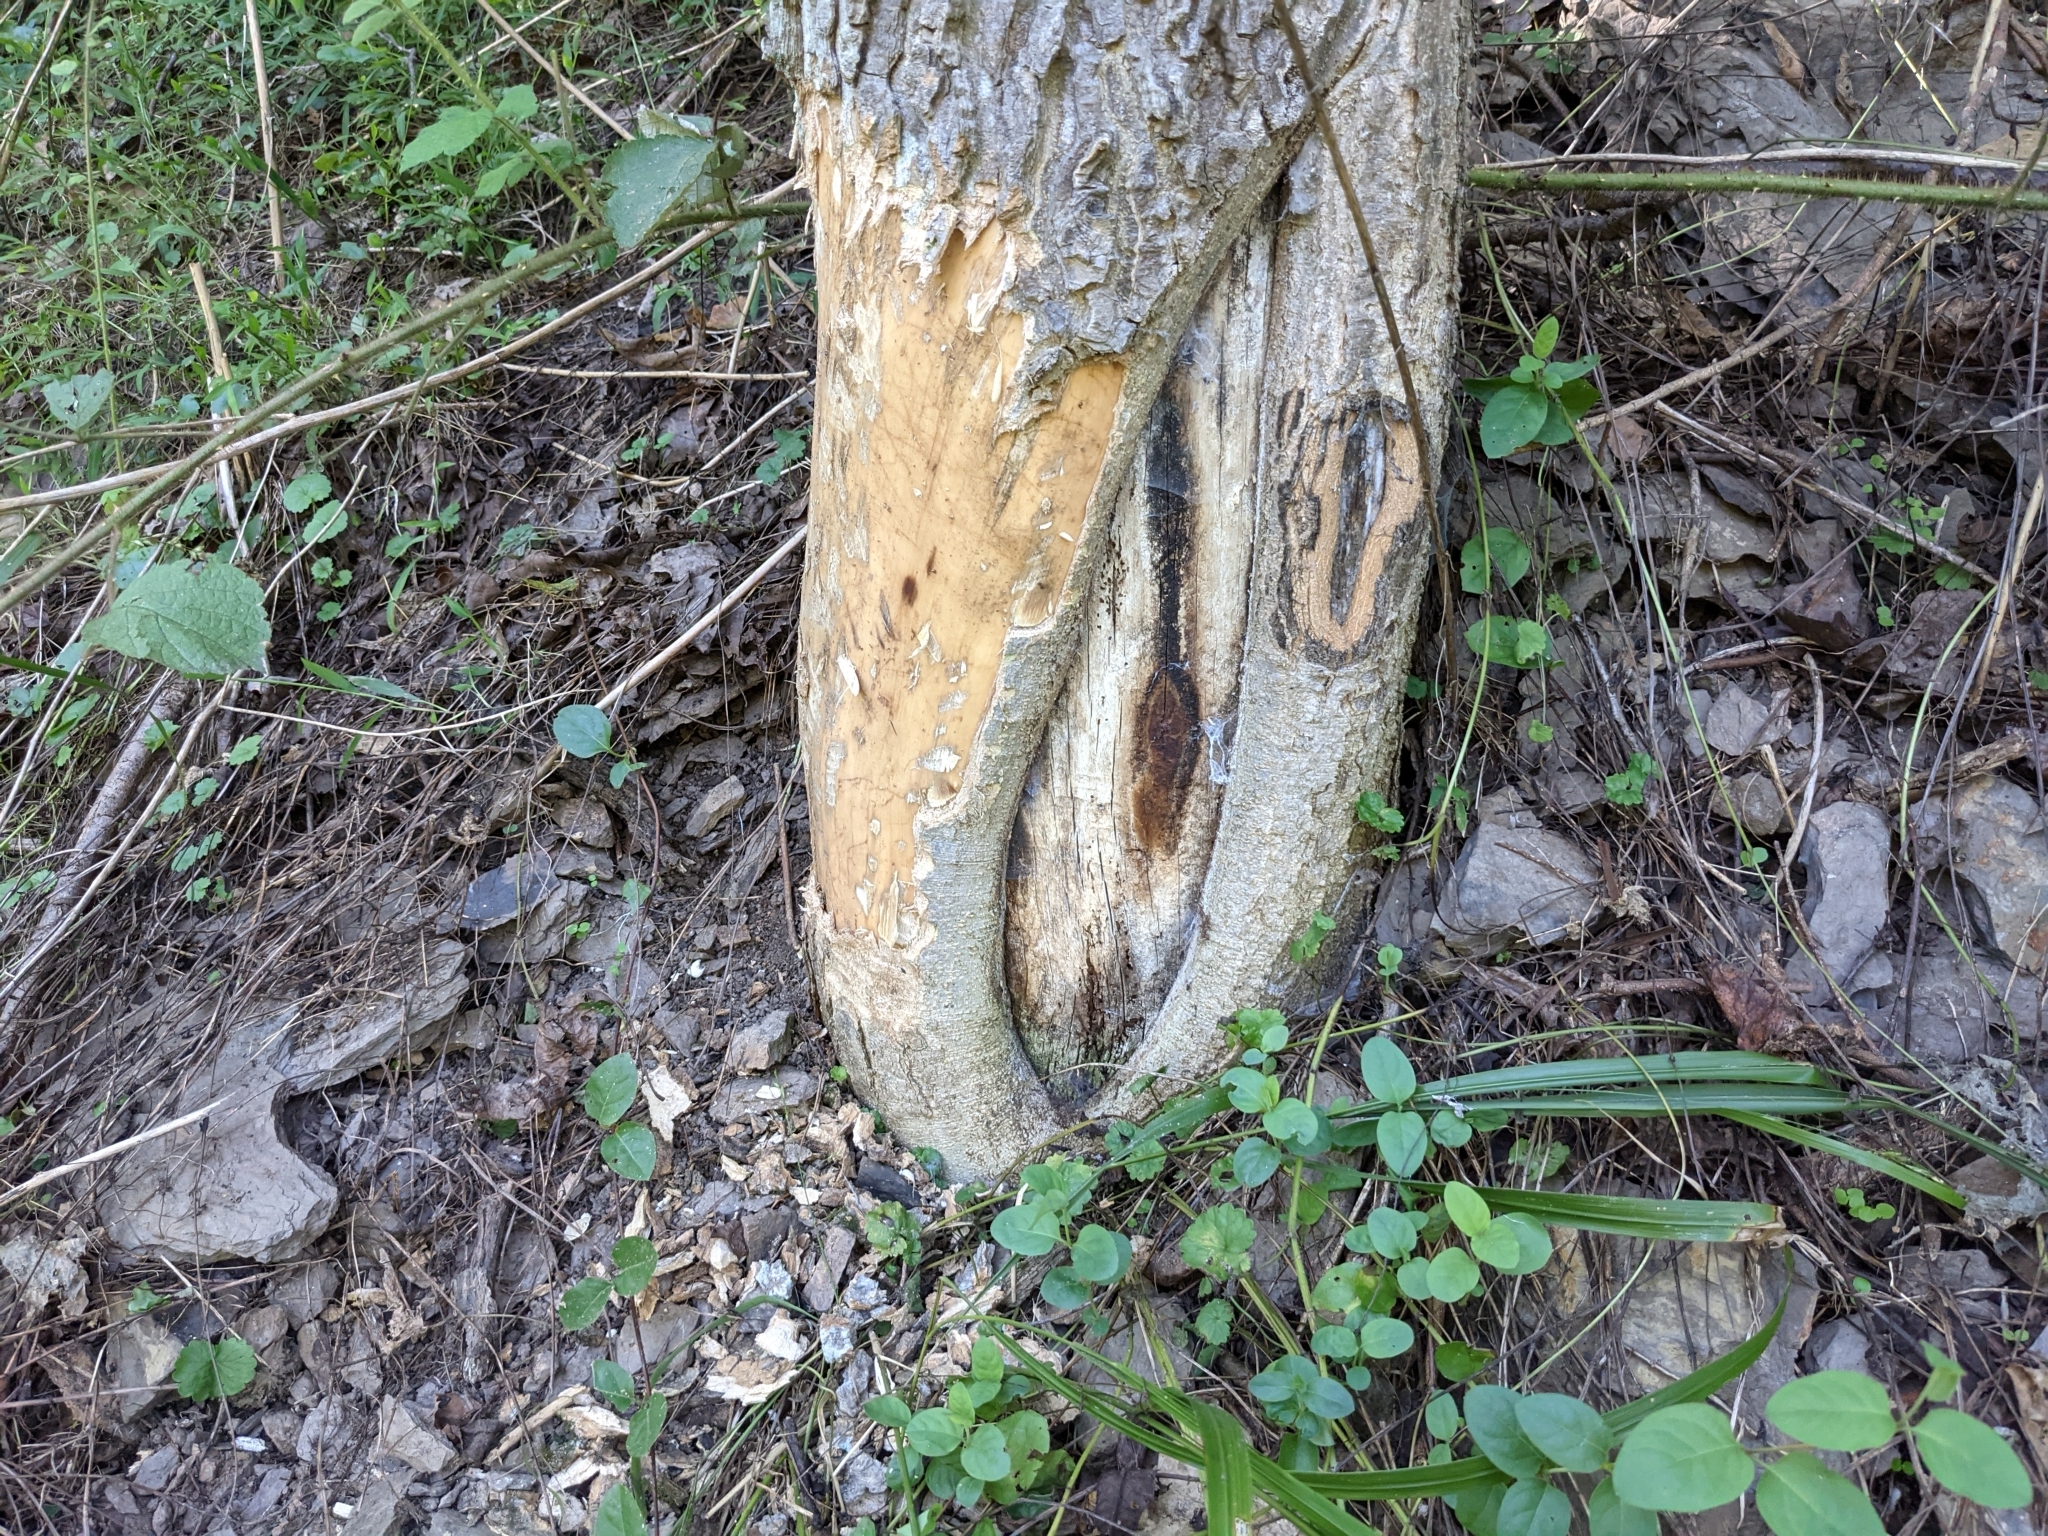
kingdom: Animalia
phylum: Chordata
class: Mammalia
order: Rodentia
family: Castoridae
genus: Castor
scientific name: Castor canadensis
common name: American beaver
